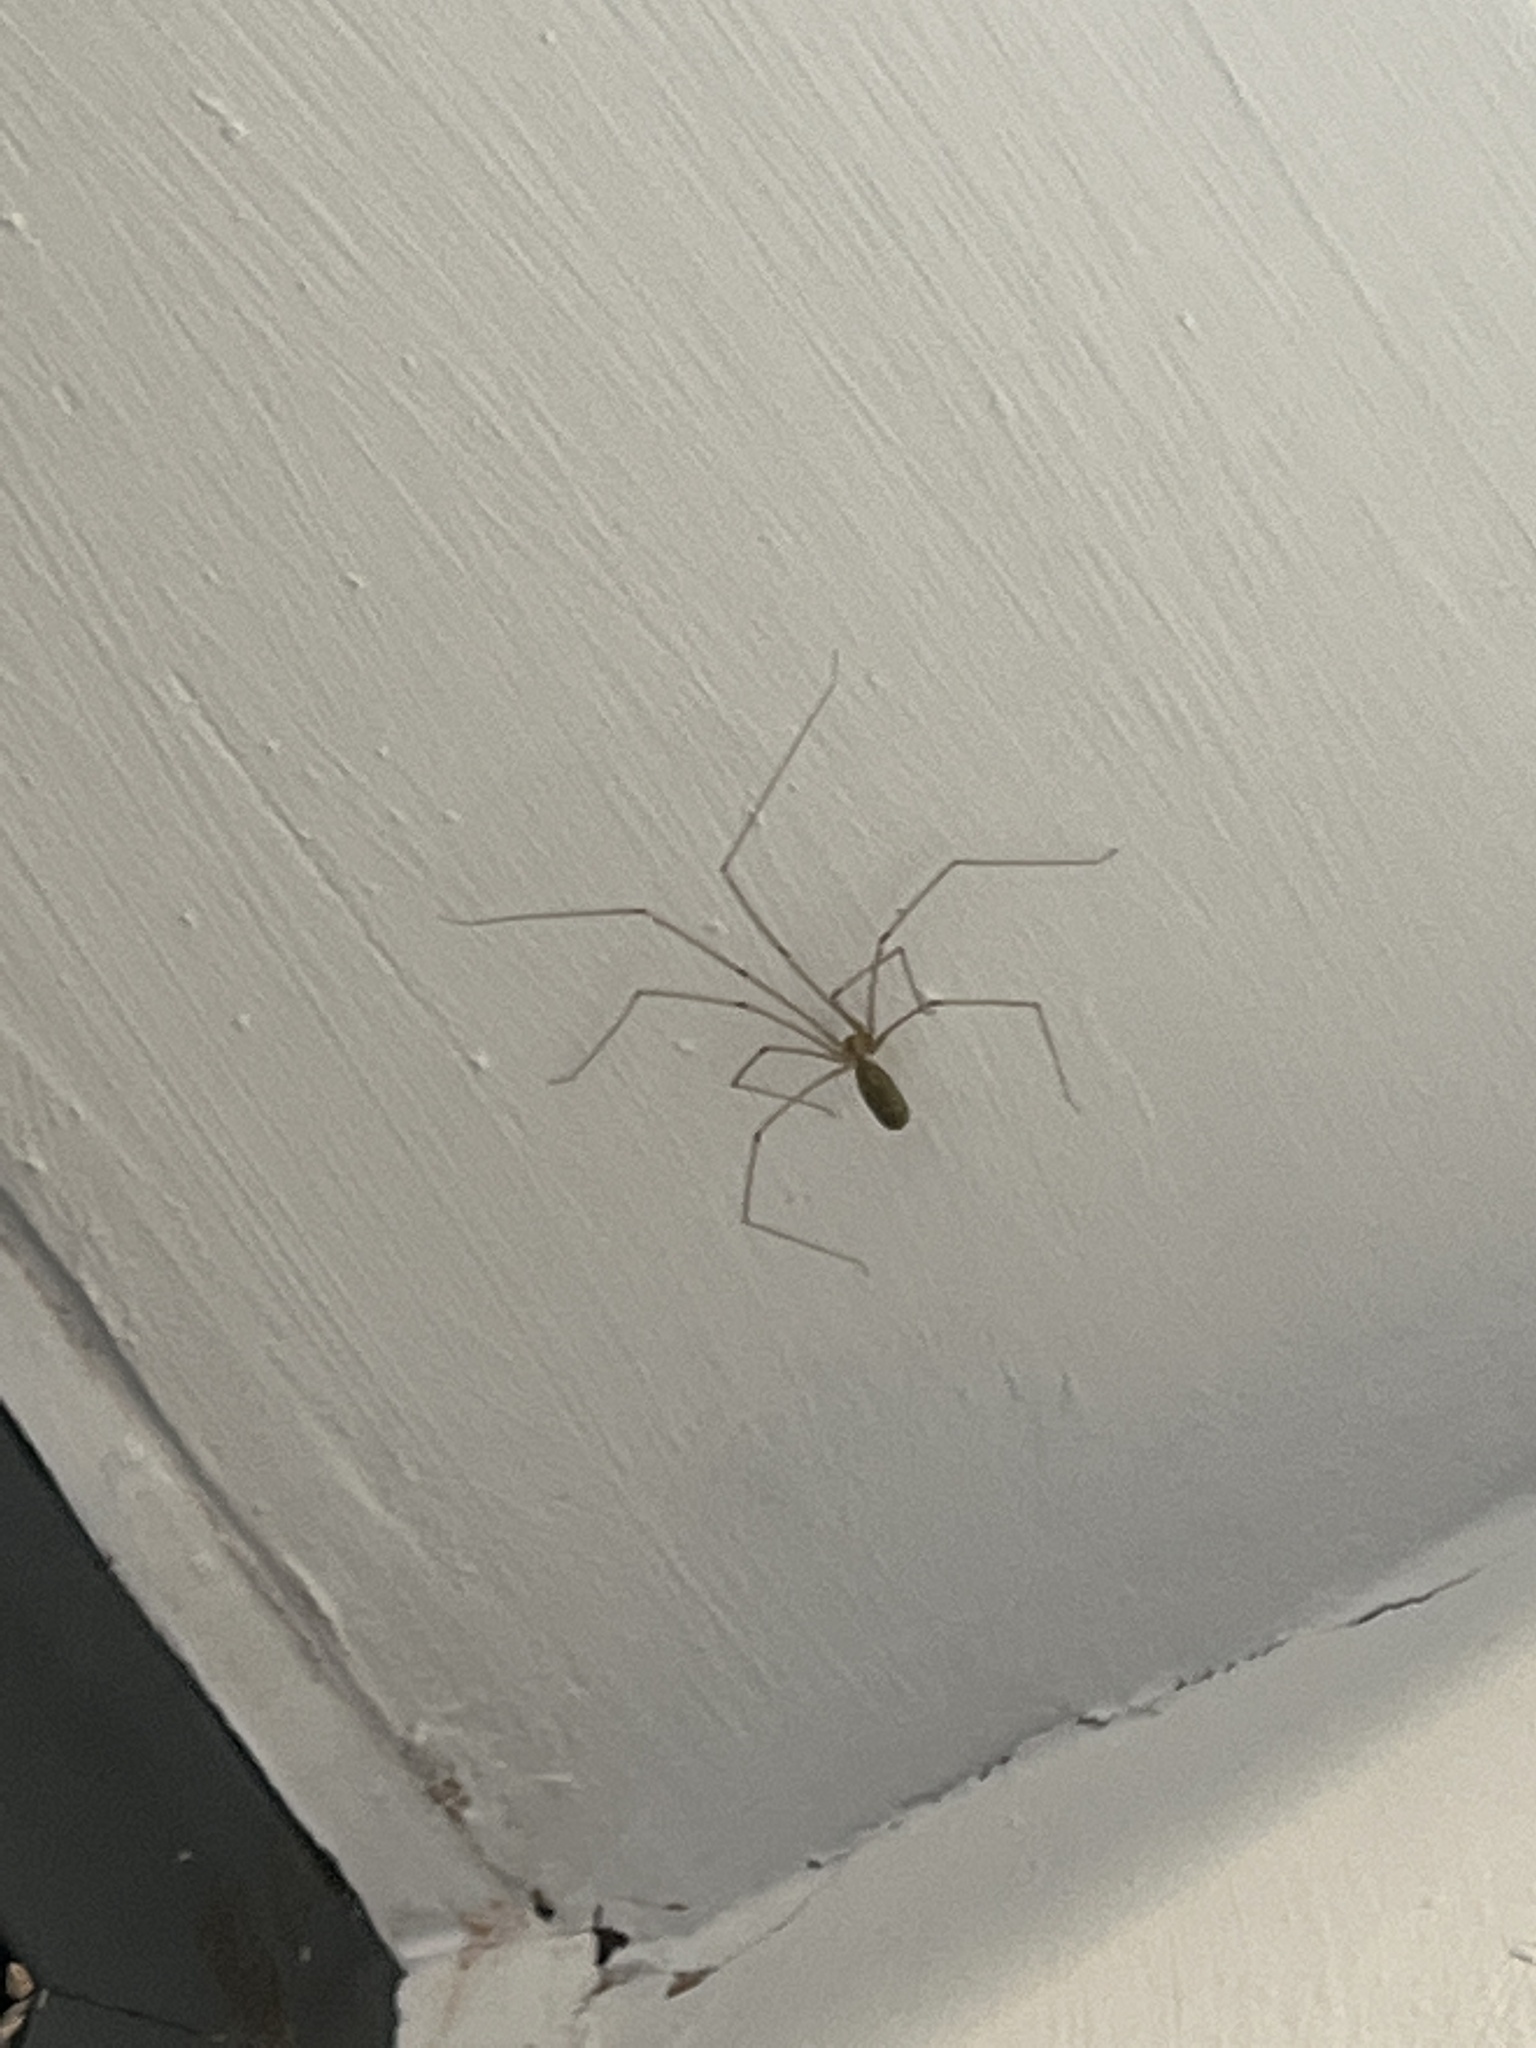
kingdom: Animalia
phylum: Arthropoda
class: Arachnida
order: Araneae
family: Pholcidae
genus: Pholcus
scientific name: Pholcus phalangioides
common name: Longbodied cellar spider
